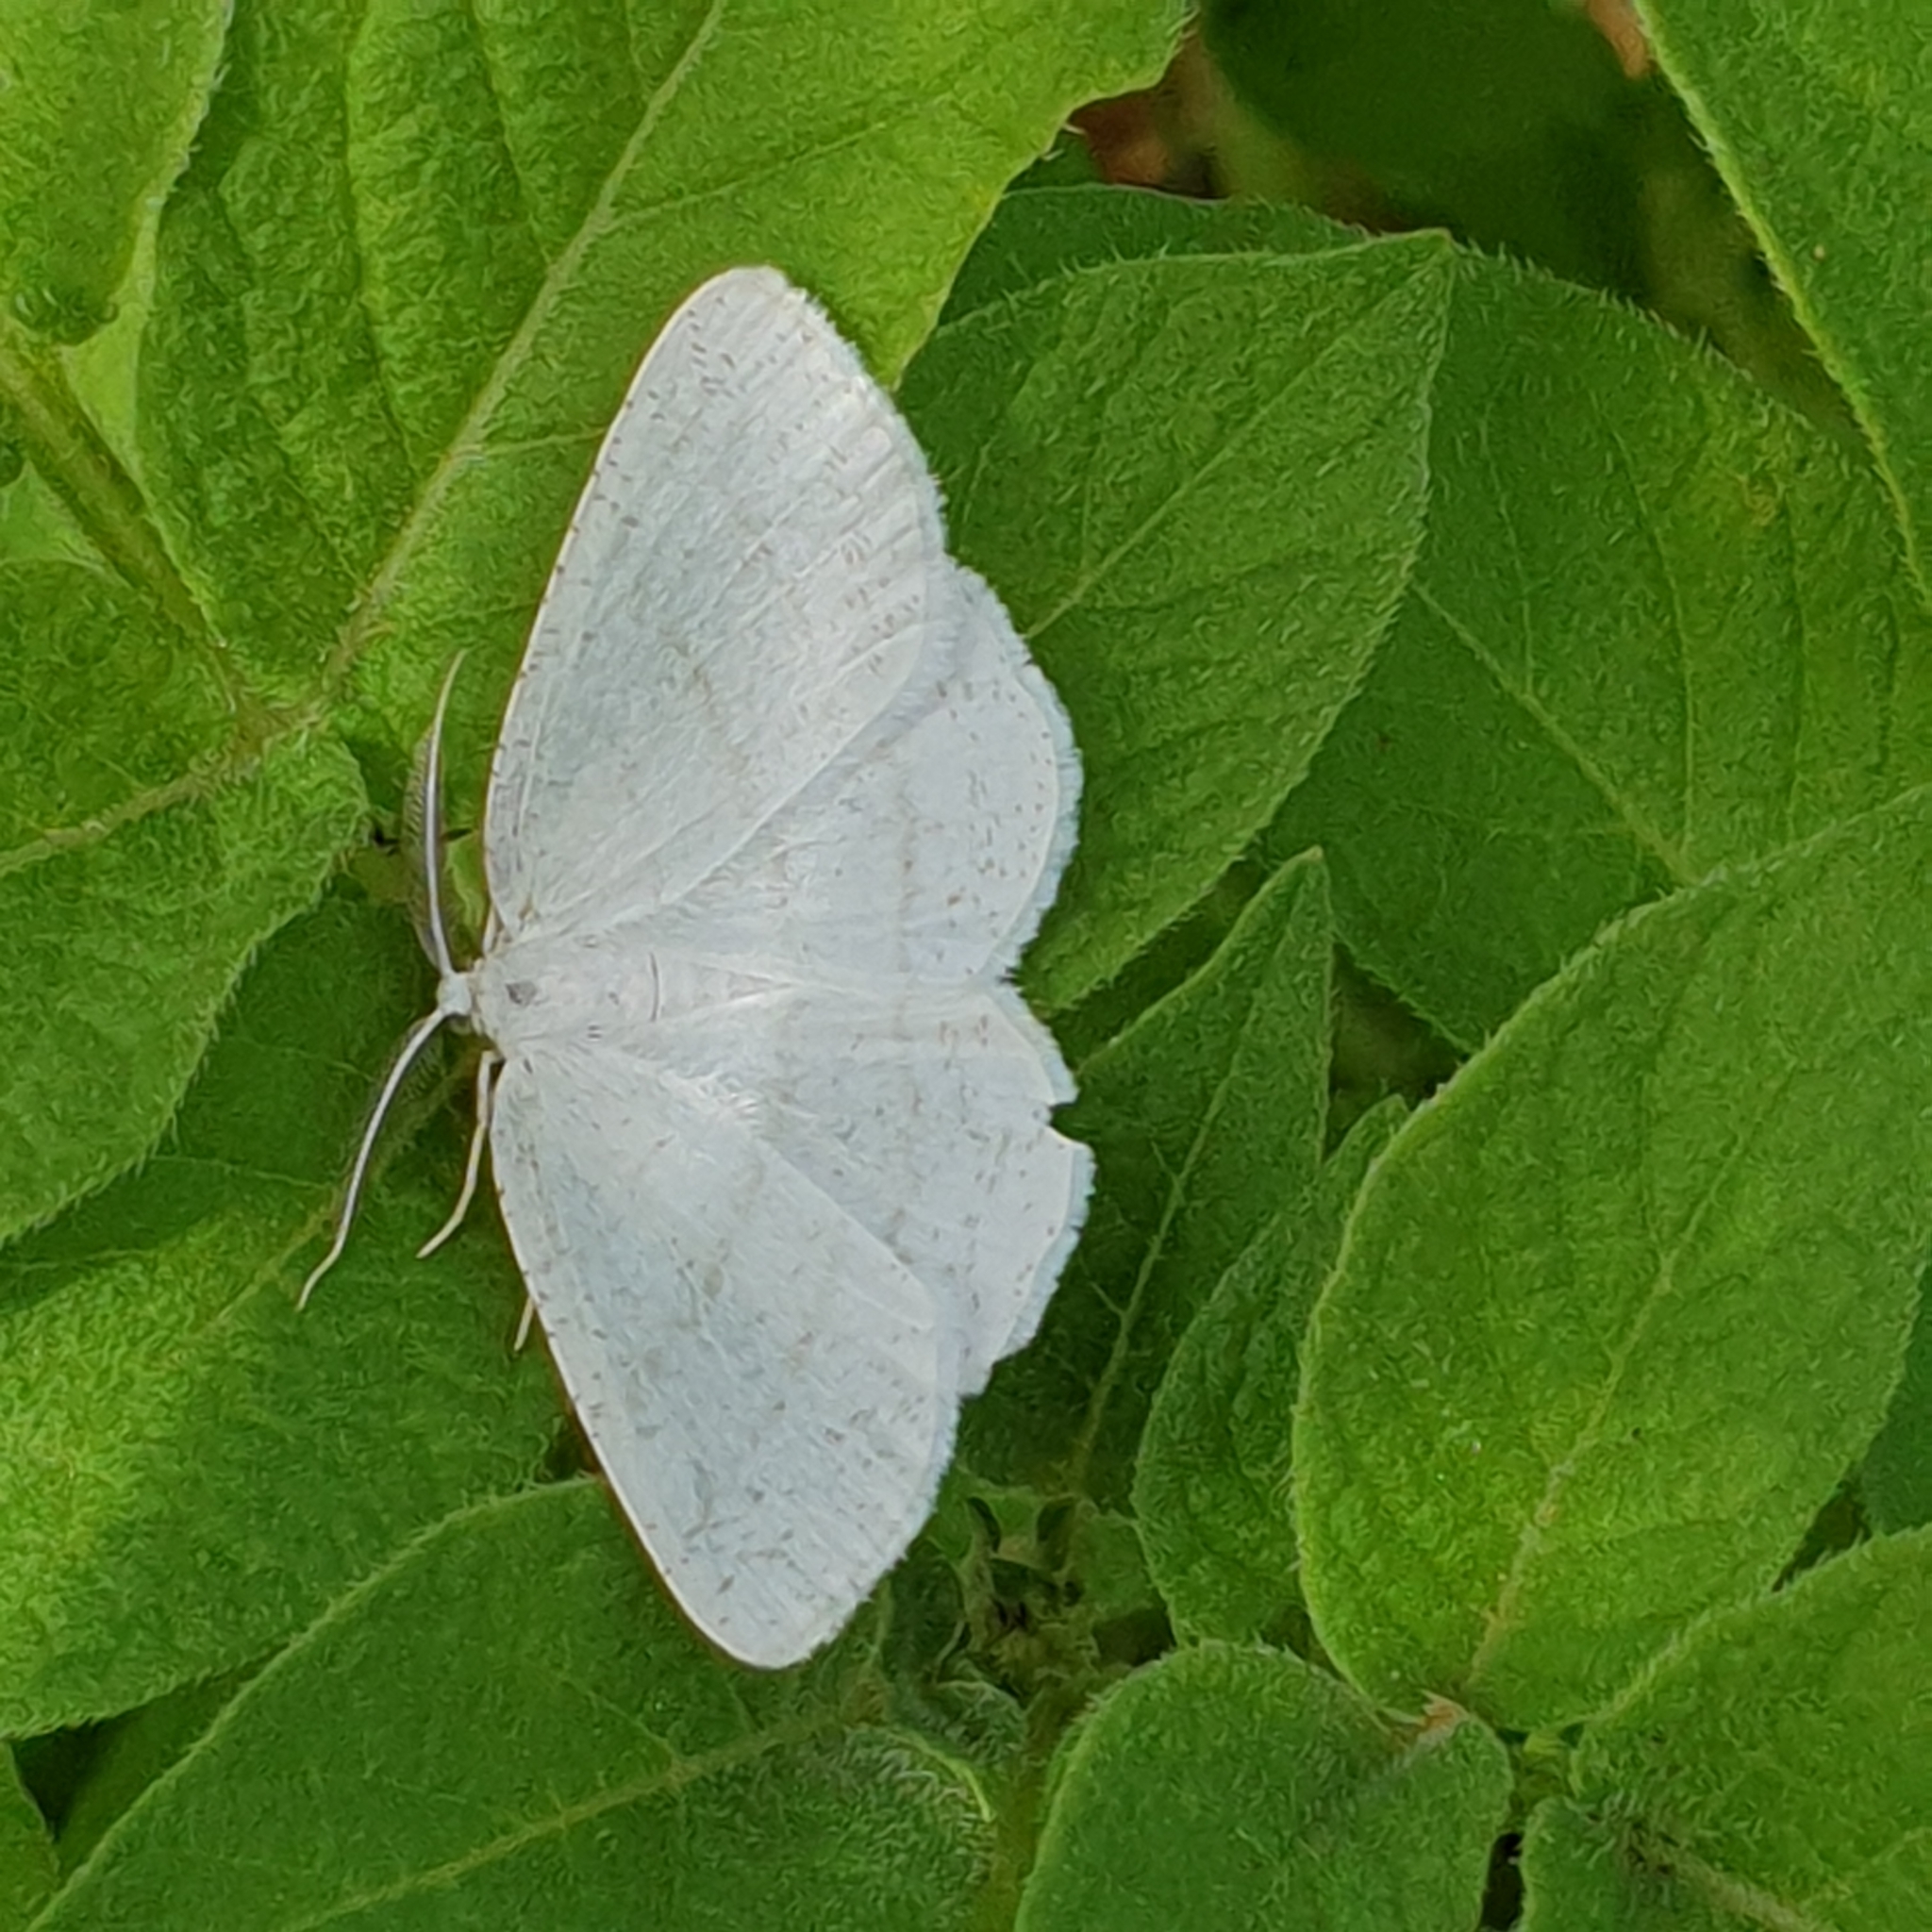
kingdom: Animalia
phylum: Arthropoda
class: Insecta
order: Lepidoptera
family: Geometridae
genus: Cabera
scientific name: Cabera pusaria
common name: Common white wave
